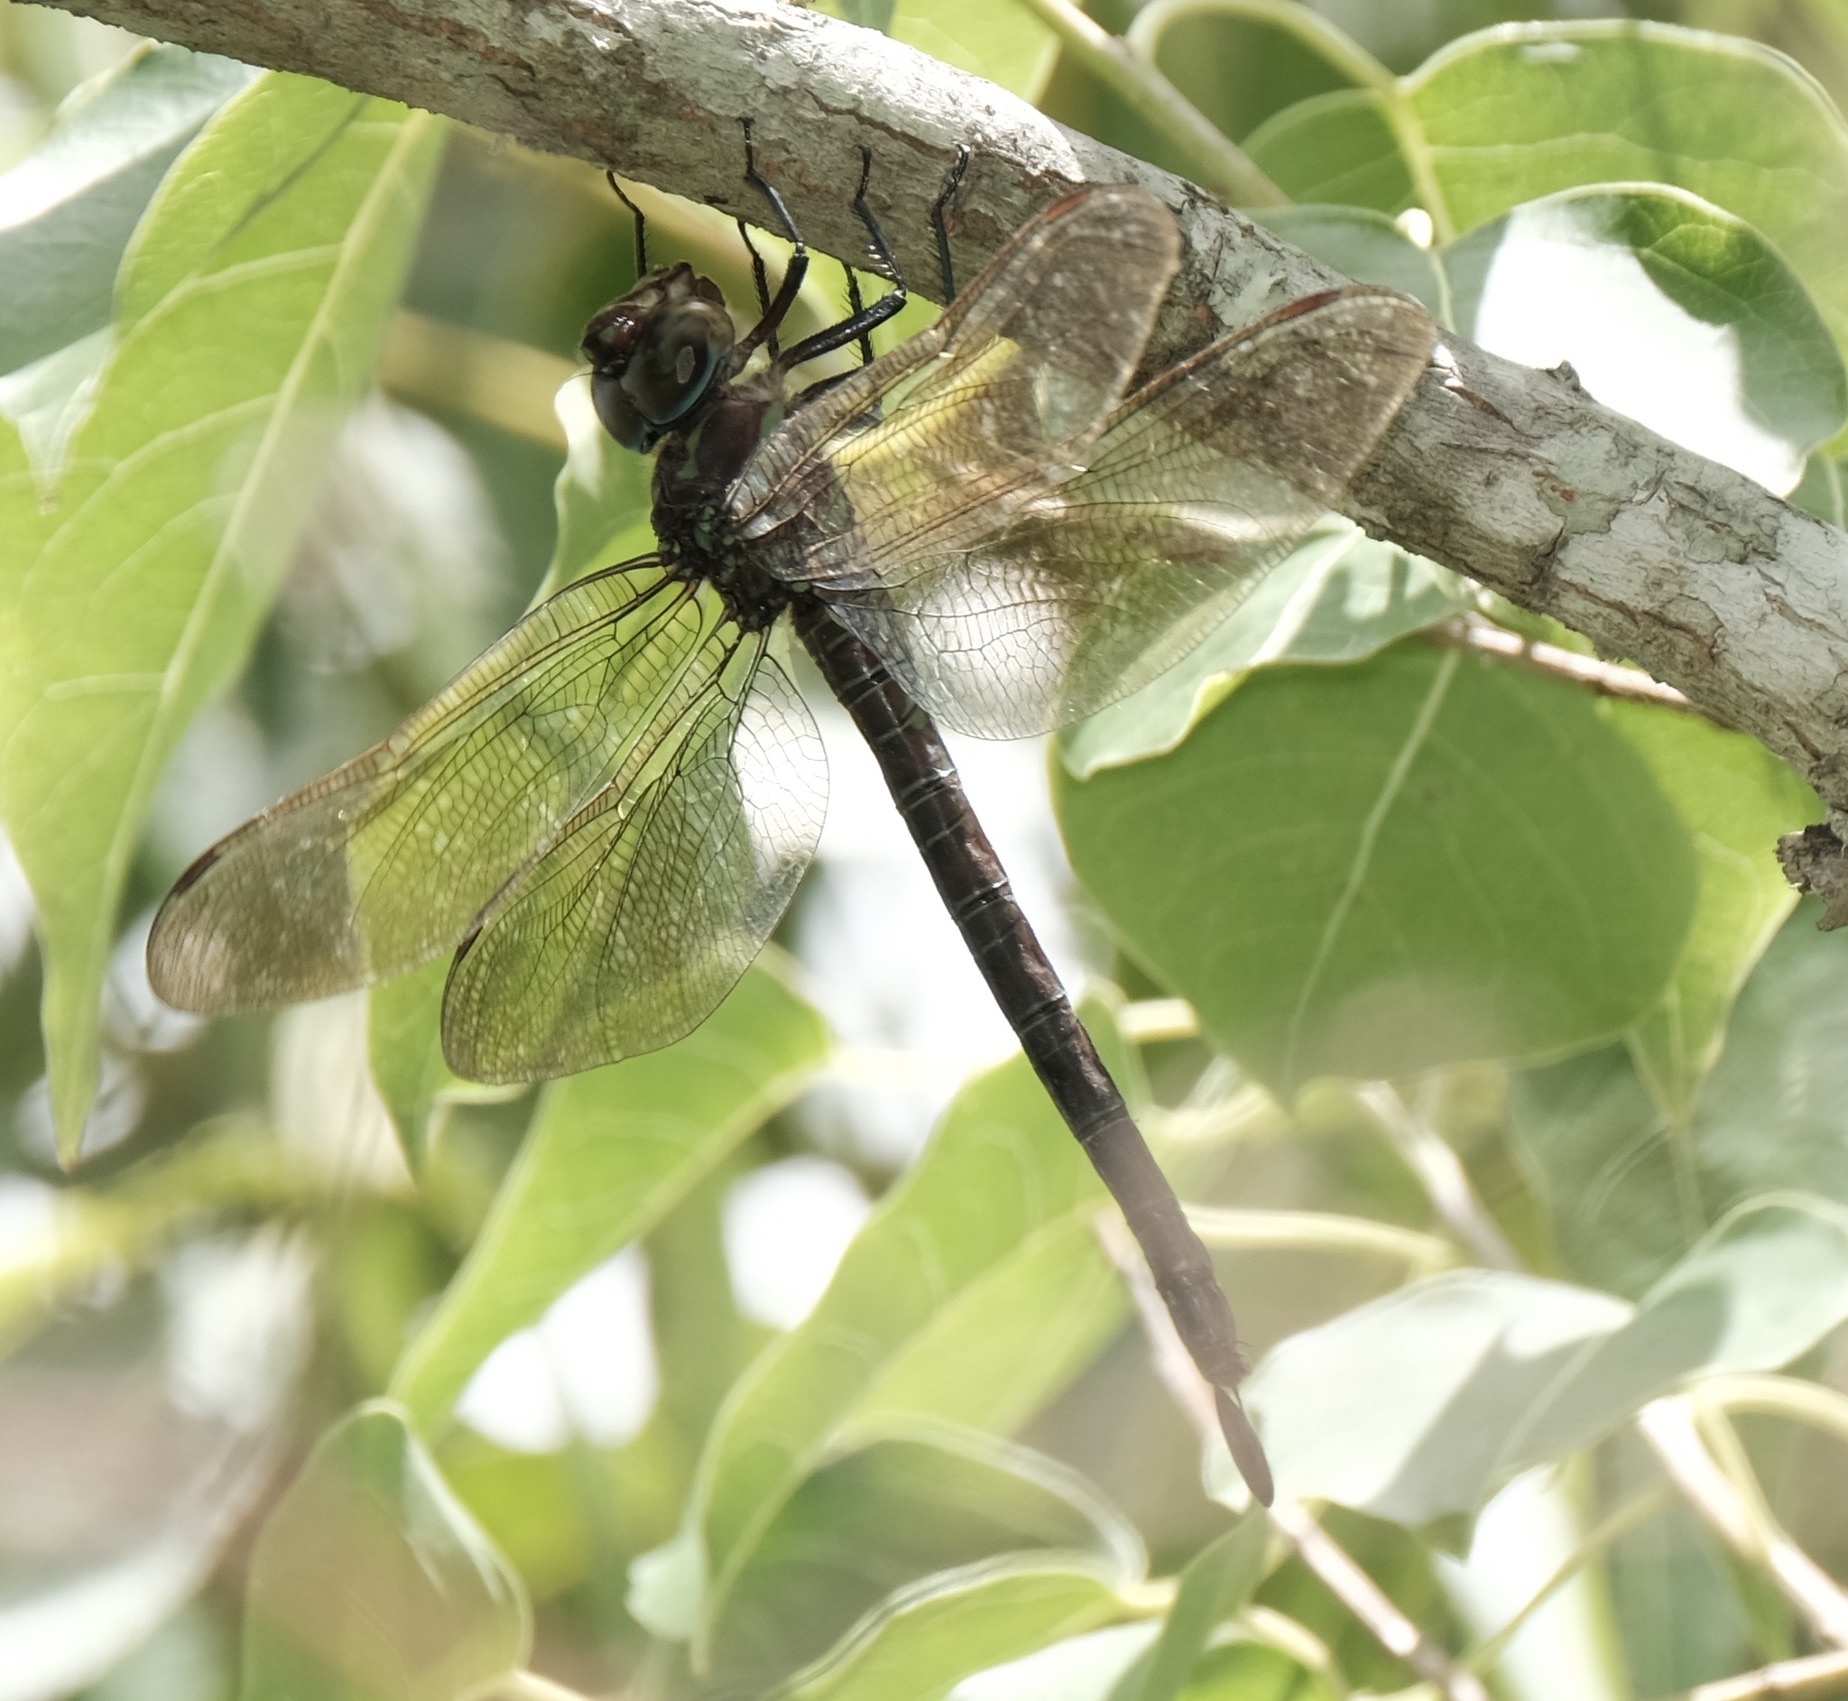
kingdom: Animalia
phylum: Arthropoda
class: Insecta
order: Odonata
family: Aeshnidae
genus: Epiaeschna
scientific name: Epiaeschna heros
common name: Swamp darner
